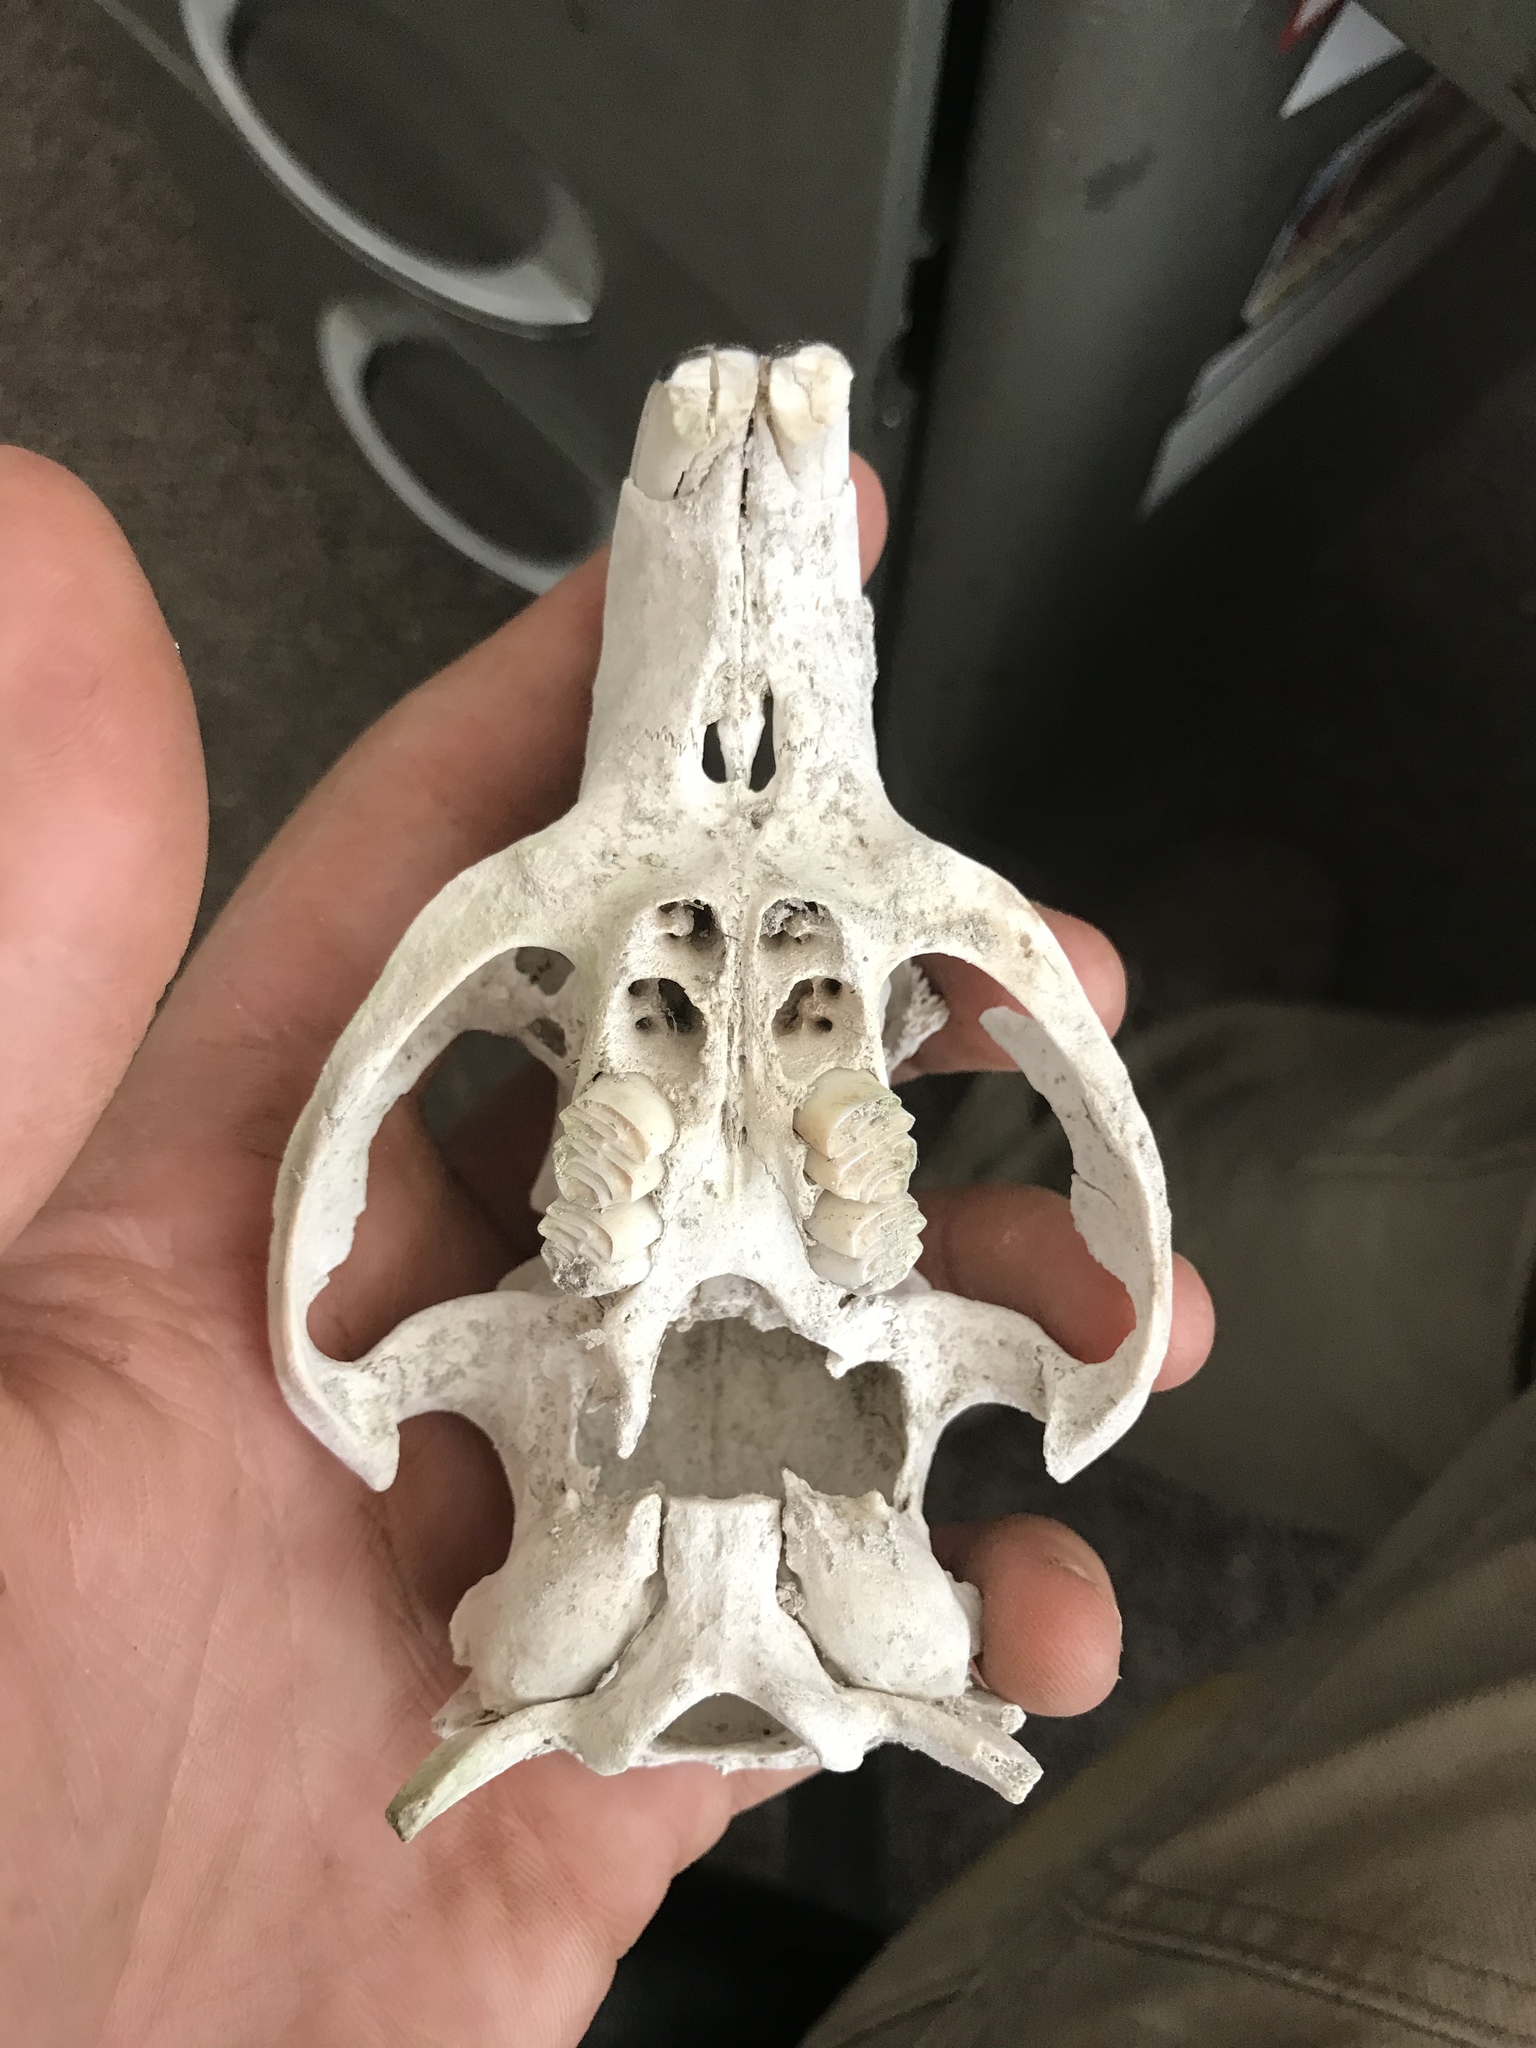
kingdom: Animalia
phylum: Chordata
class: Mammalia
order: Rodentia
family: Myocastoridae
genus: Myocastor
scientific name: Myocastor coypus
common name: Coypu
